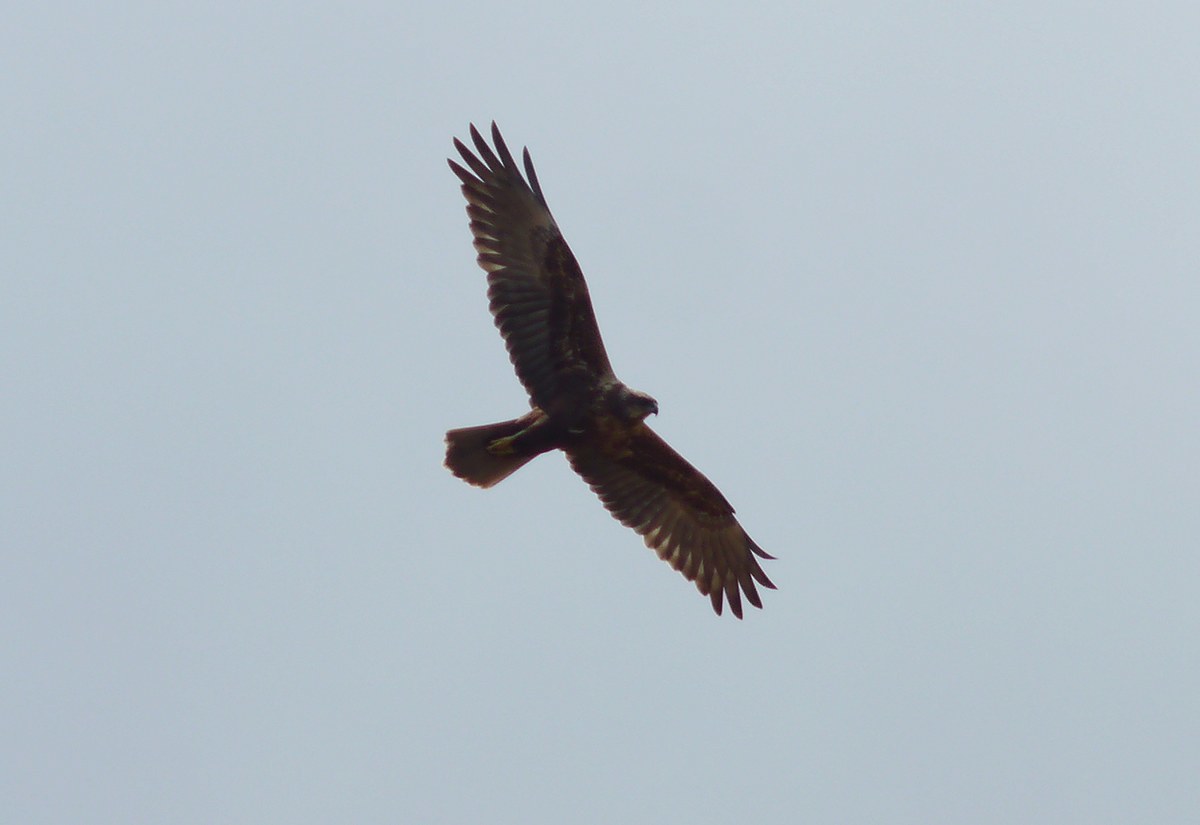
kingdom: Animalia
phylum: Chordata
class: Aves
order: Accipitriformes
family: Accipitridae
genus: Circus
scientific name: Circus aeruginosus
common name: Western marsh harrier
